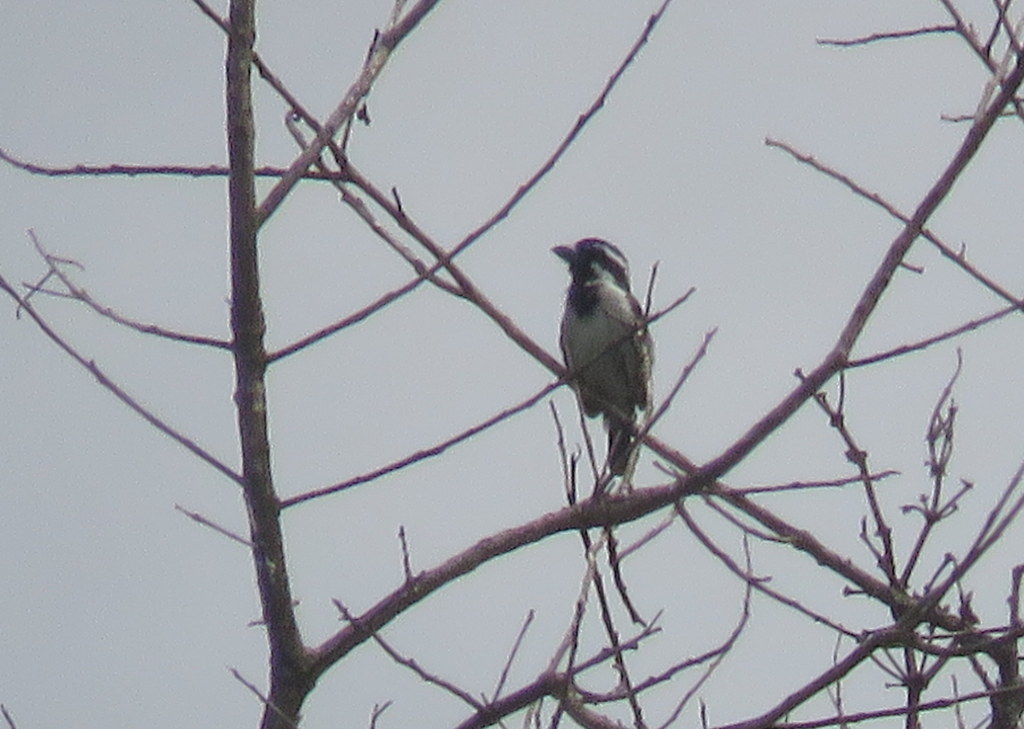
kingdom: Animalia
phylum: Chordata
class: Aves
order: Piciformes
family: Lybiidae
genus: Tricholaema
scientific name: Tricholaema melanocephala
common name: Black-throated barbet
